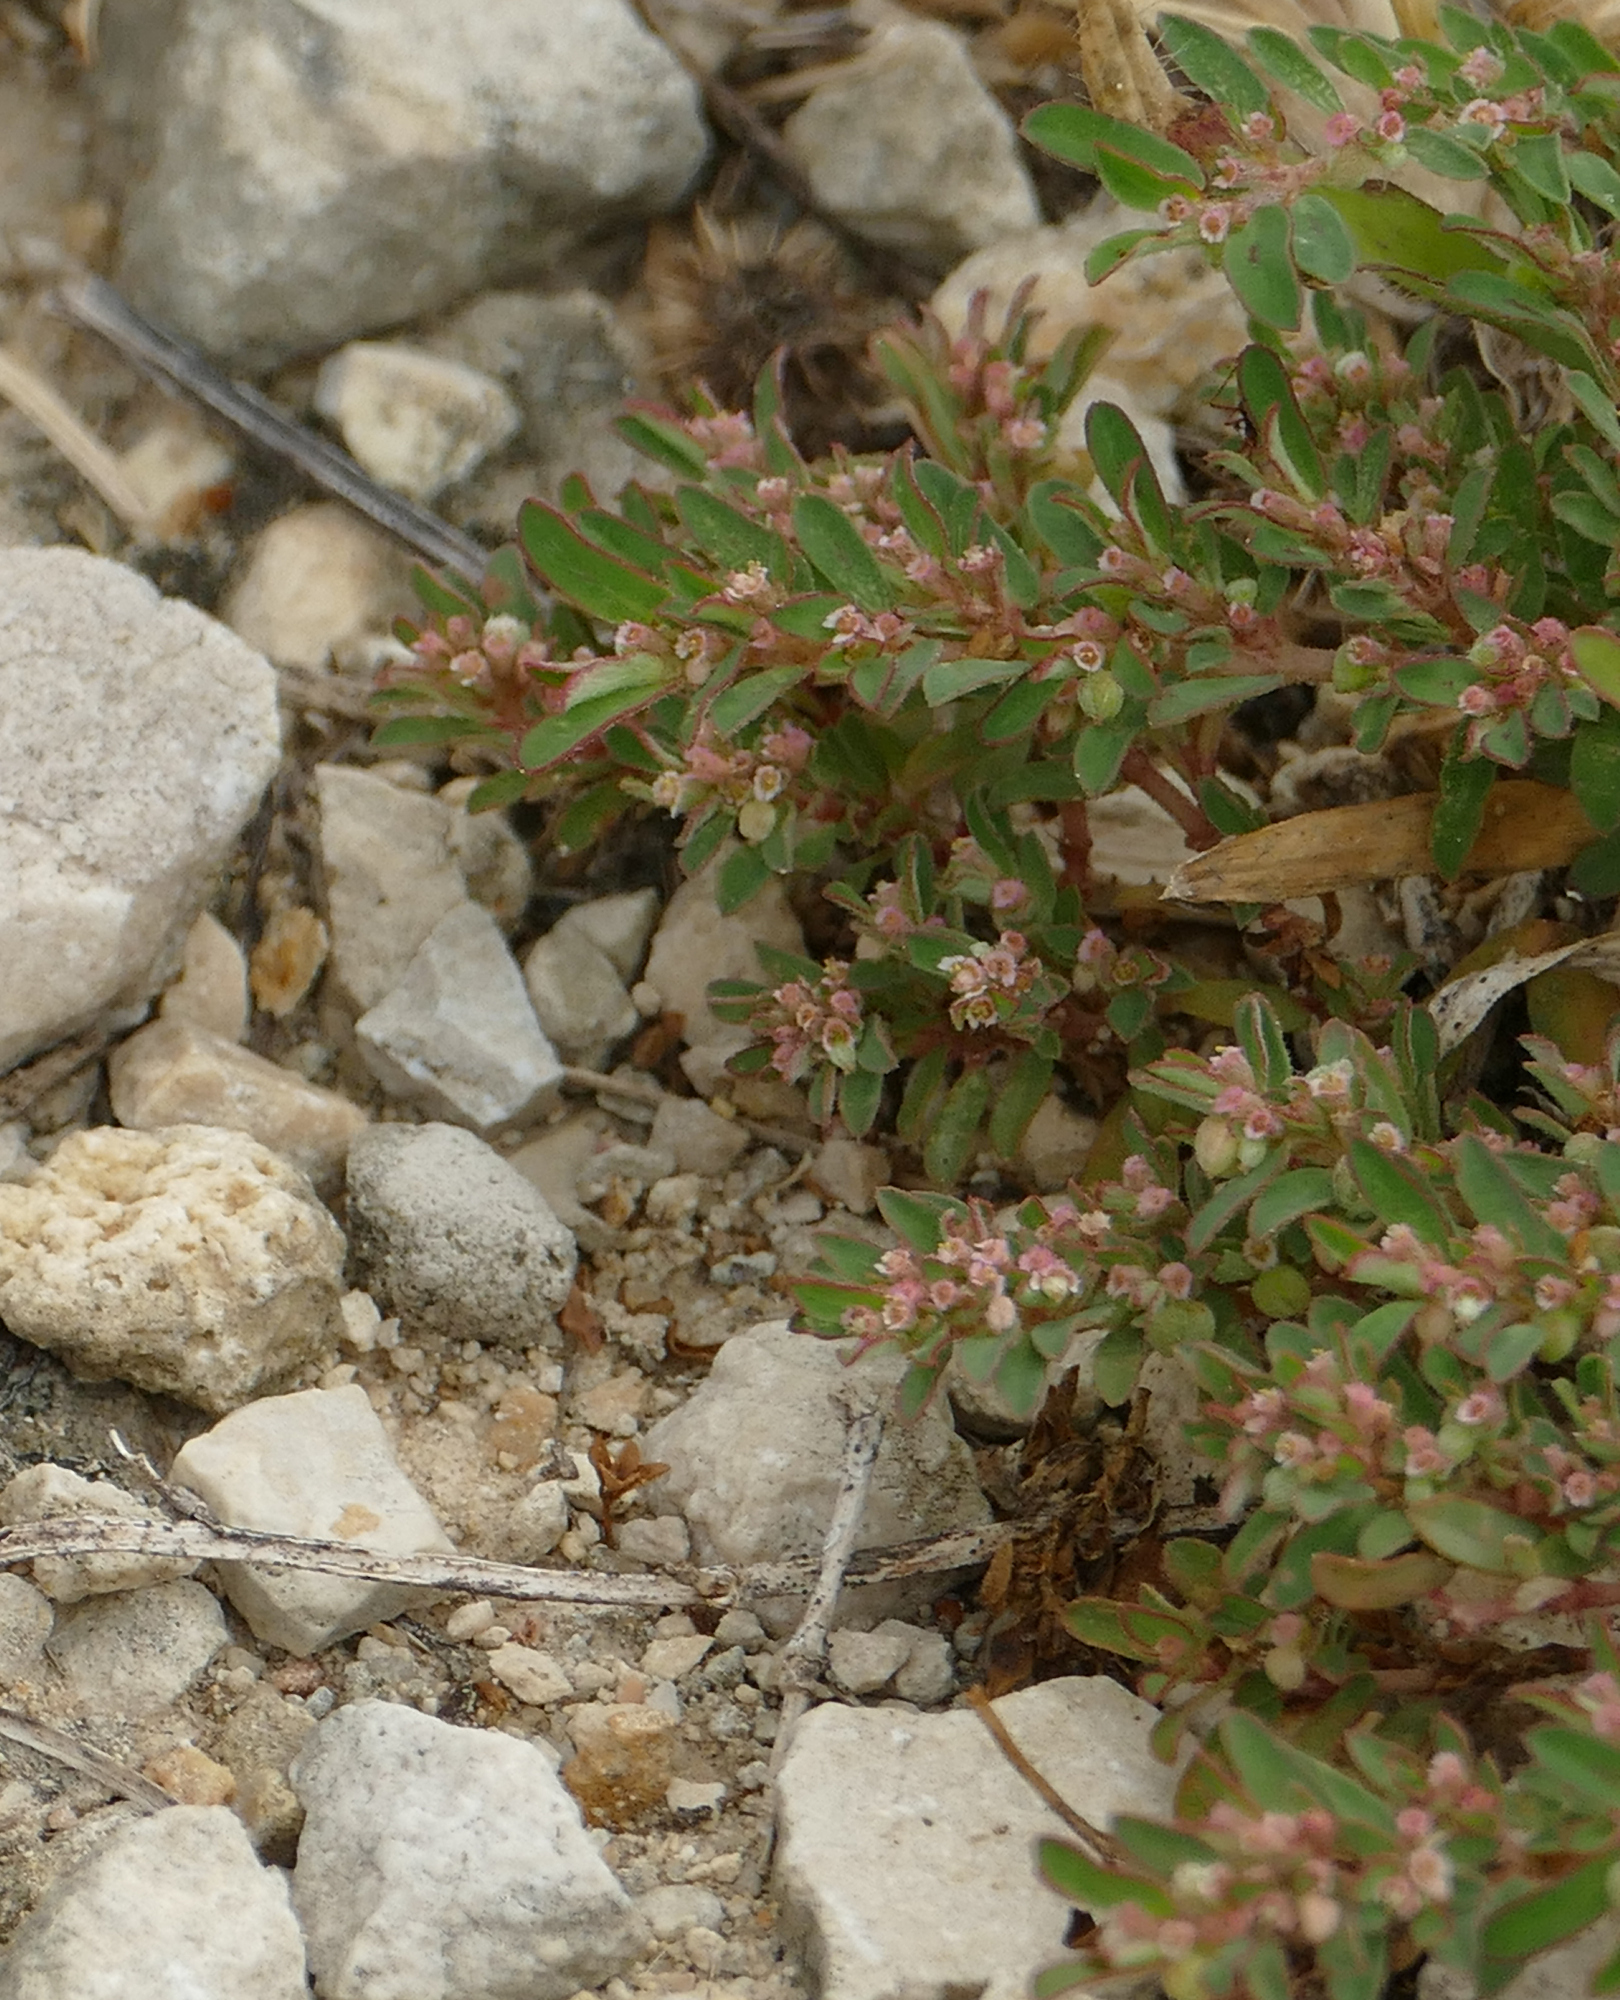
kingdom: Plantae
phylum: Tracheophyta
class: Magnoliopsida
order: Malpighiales
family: Euphorbiaceae
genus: Euphorbia
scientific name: Euphorbia maculata
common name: Spotted spurge
